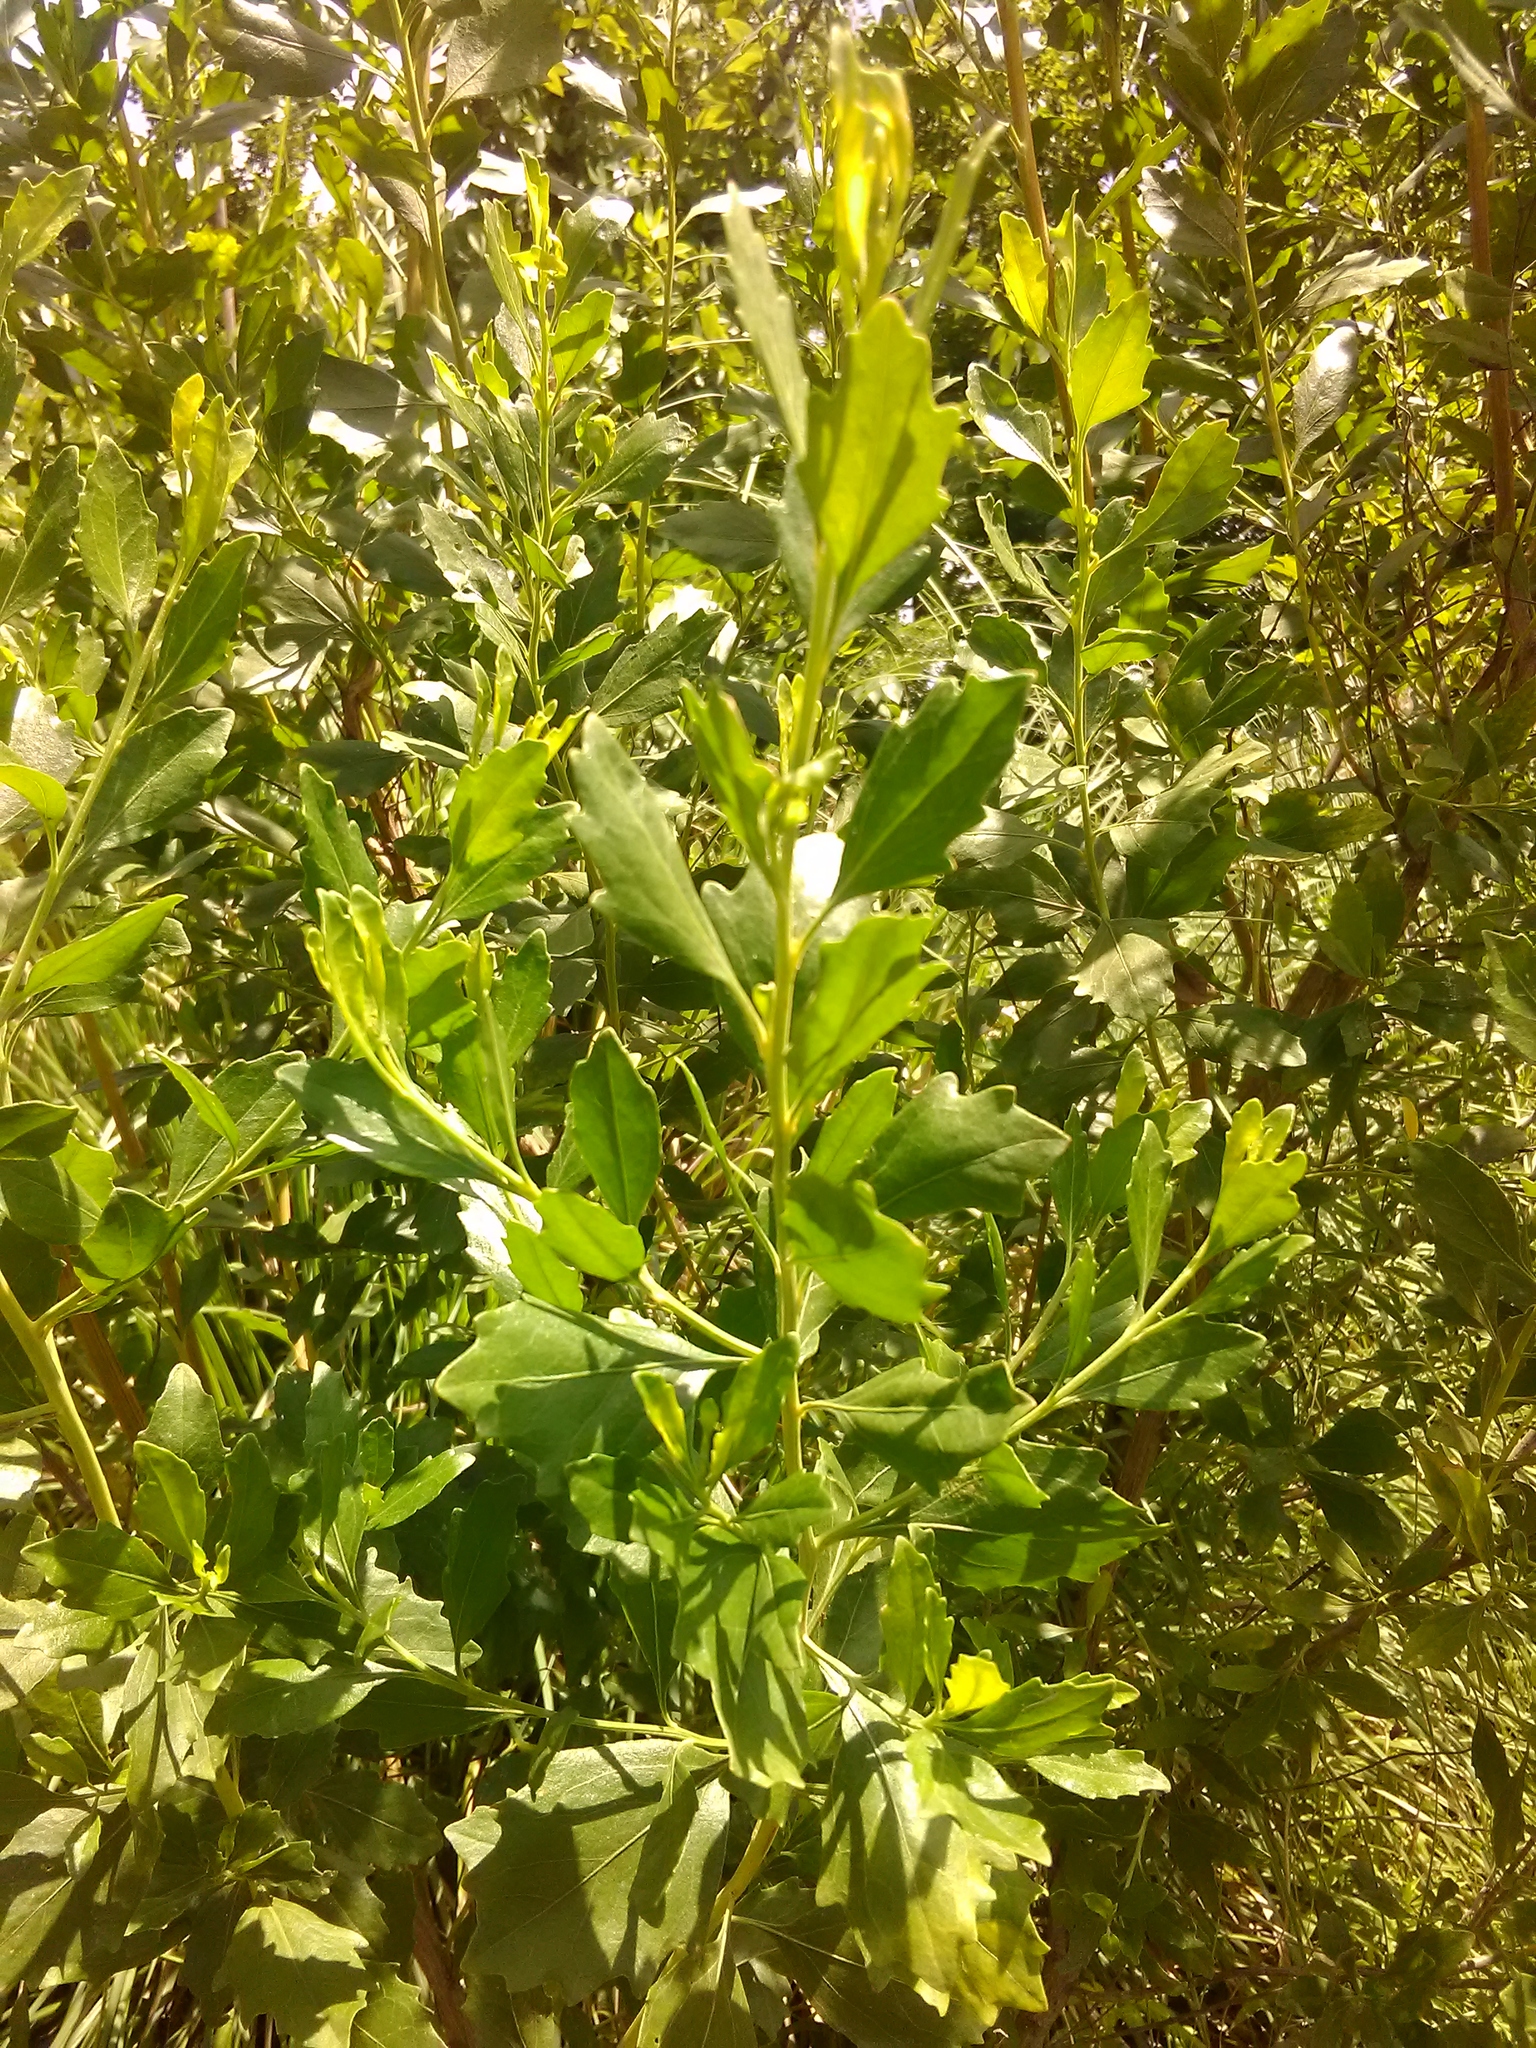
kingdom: Plantae
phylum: Tracheophyta
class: Magnoliopsida
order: Asterales
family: Asteraceae
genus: Baccharis
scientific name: Baccharis halimifolia
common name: Eastern baccharis
